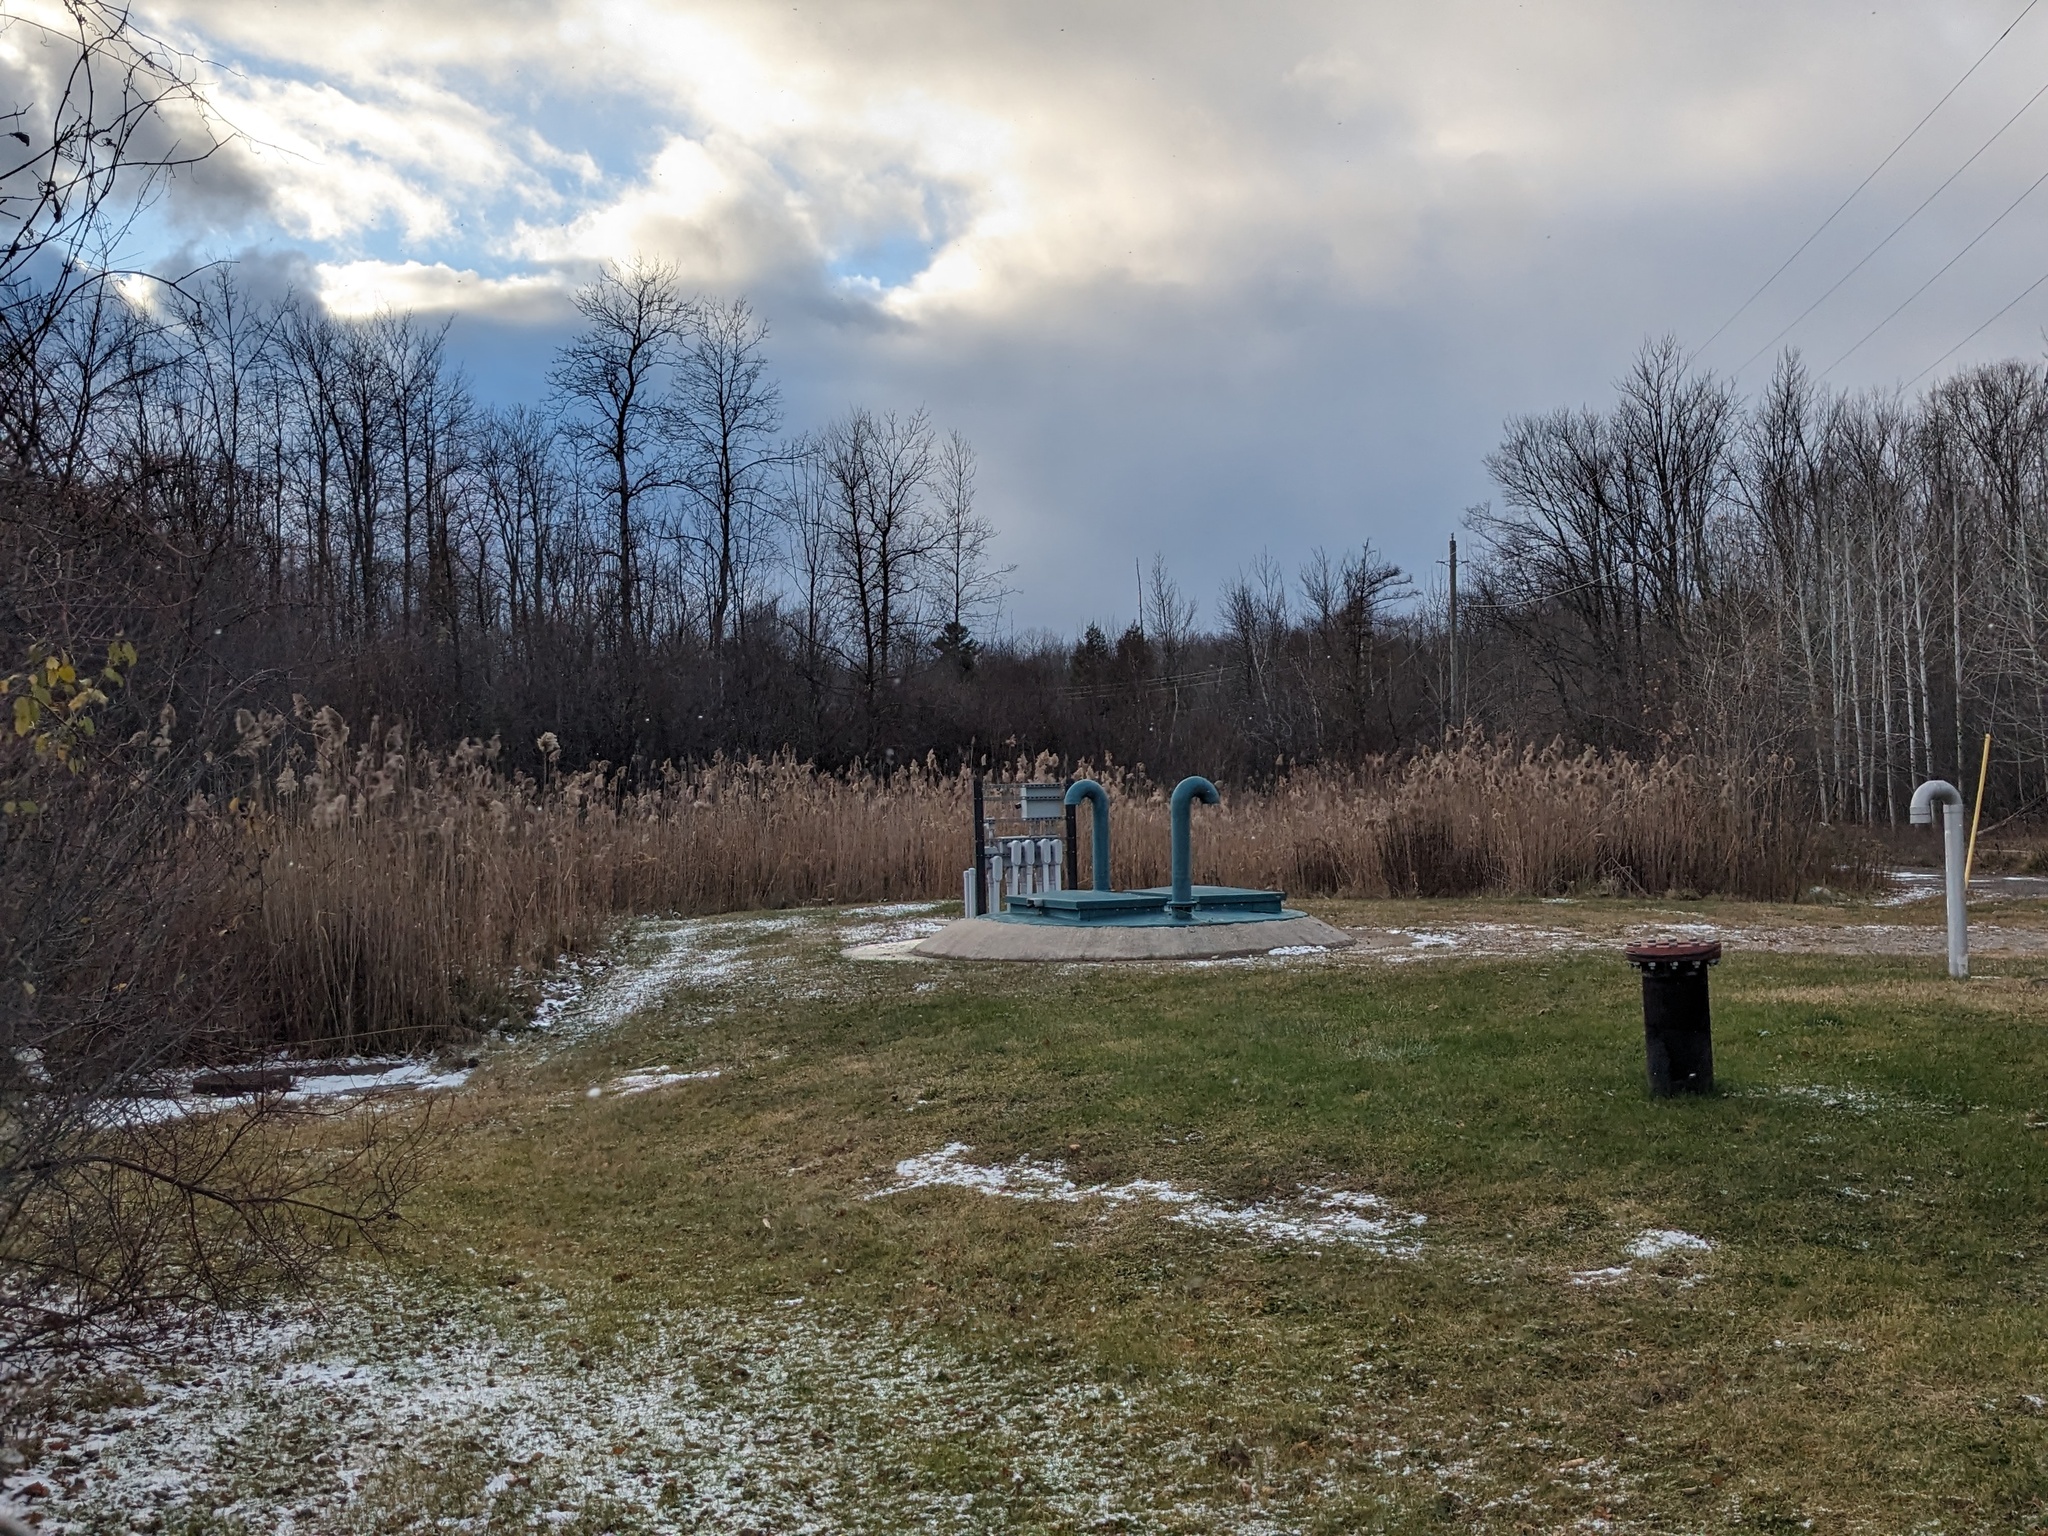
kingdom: Plantae
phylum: Tracheophyta
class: Liliopsida
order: Poales
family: Poaceae
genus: Phragmites
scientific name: Phragmites australis
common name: Common reed
